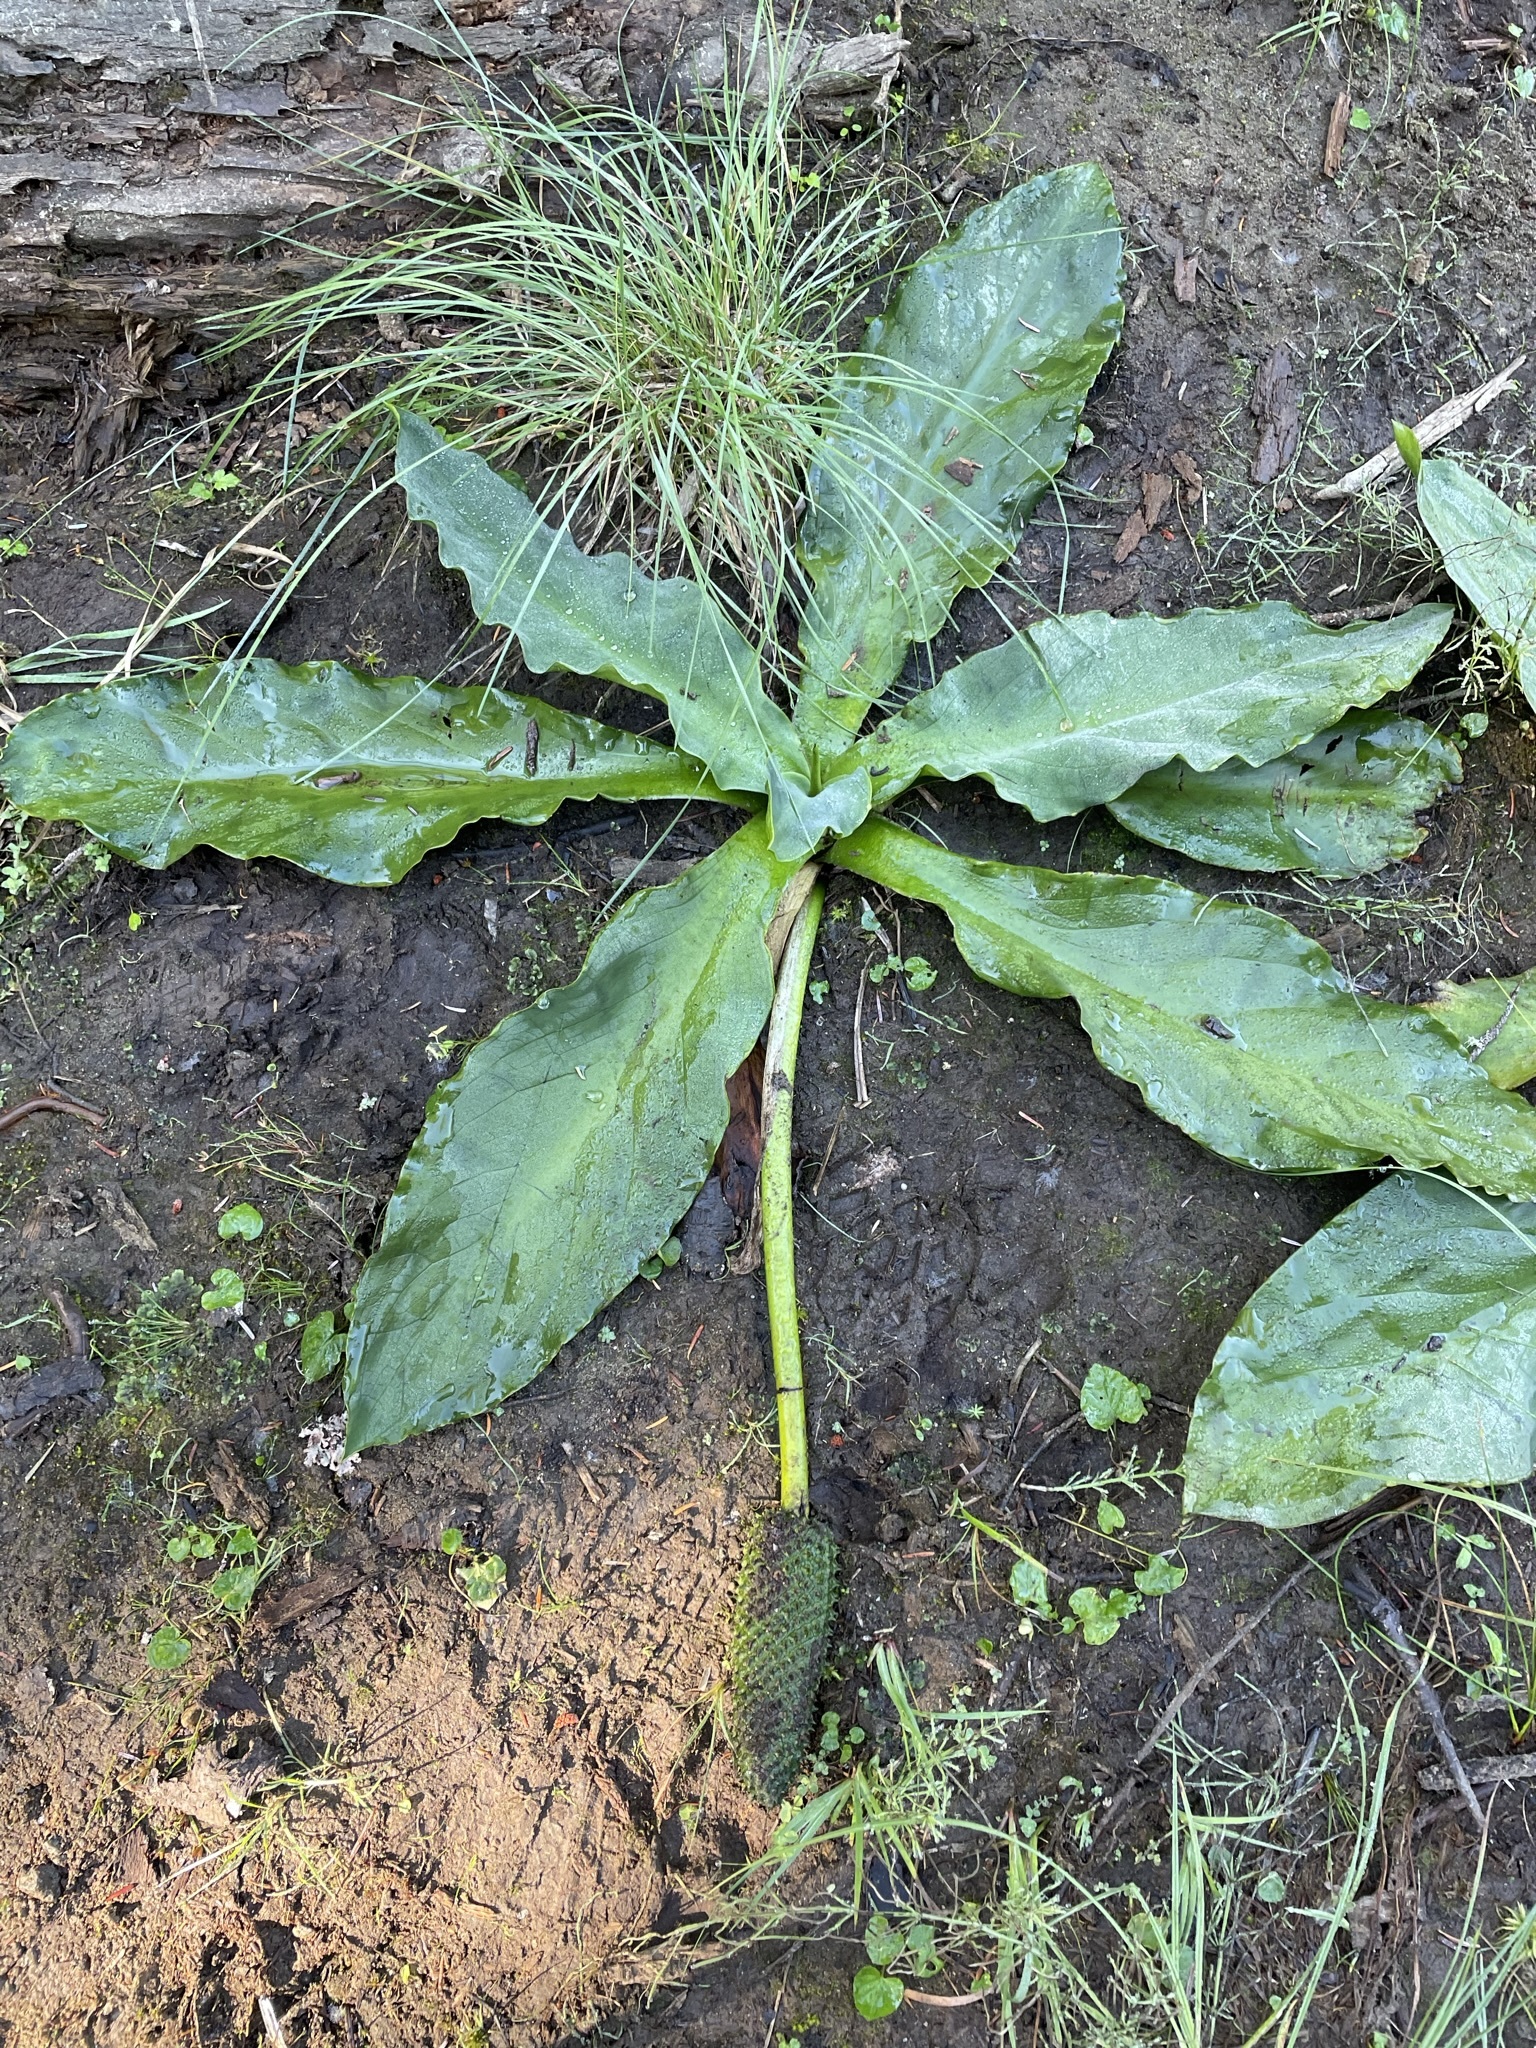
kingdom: Plantae
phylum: Tracheophyta
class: Liliopsida
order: Alismatales
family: Araceae
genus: Lysichiton
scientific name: Lysichiton americanus
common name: American skunk cabbage
